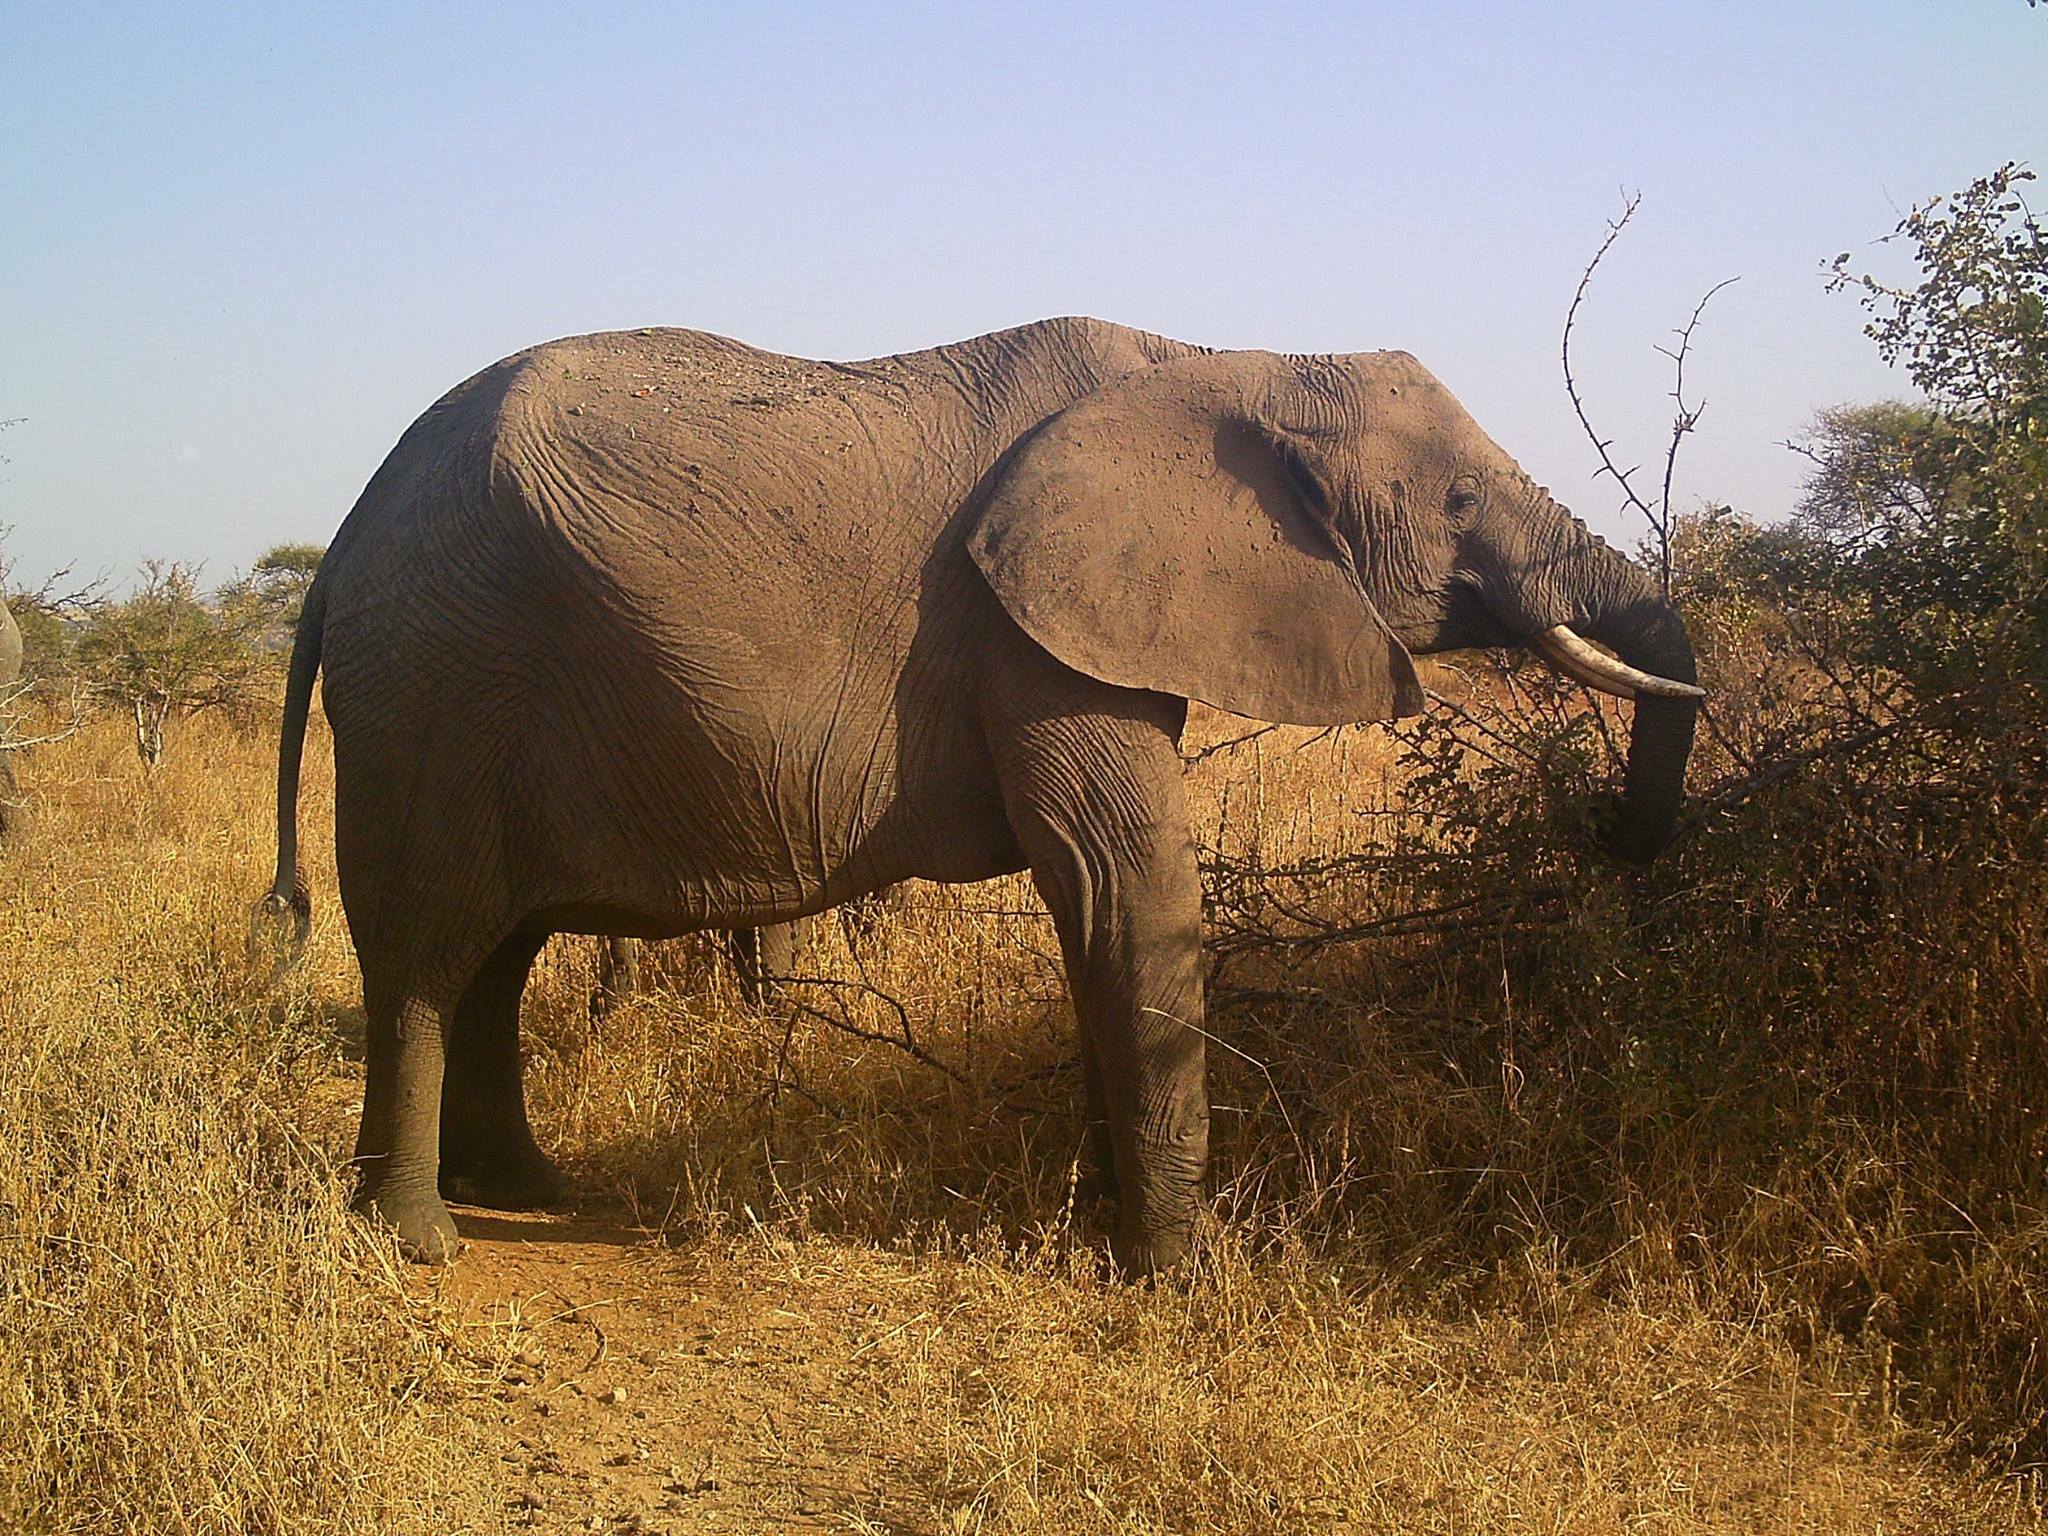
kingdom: Animalia
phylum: Chordata
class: Mammalia
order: Proboscidea
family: Elephantidae
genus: Loxodonta
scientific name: Loxodonta africana
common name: African elephant
